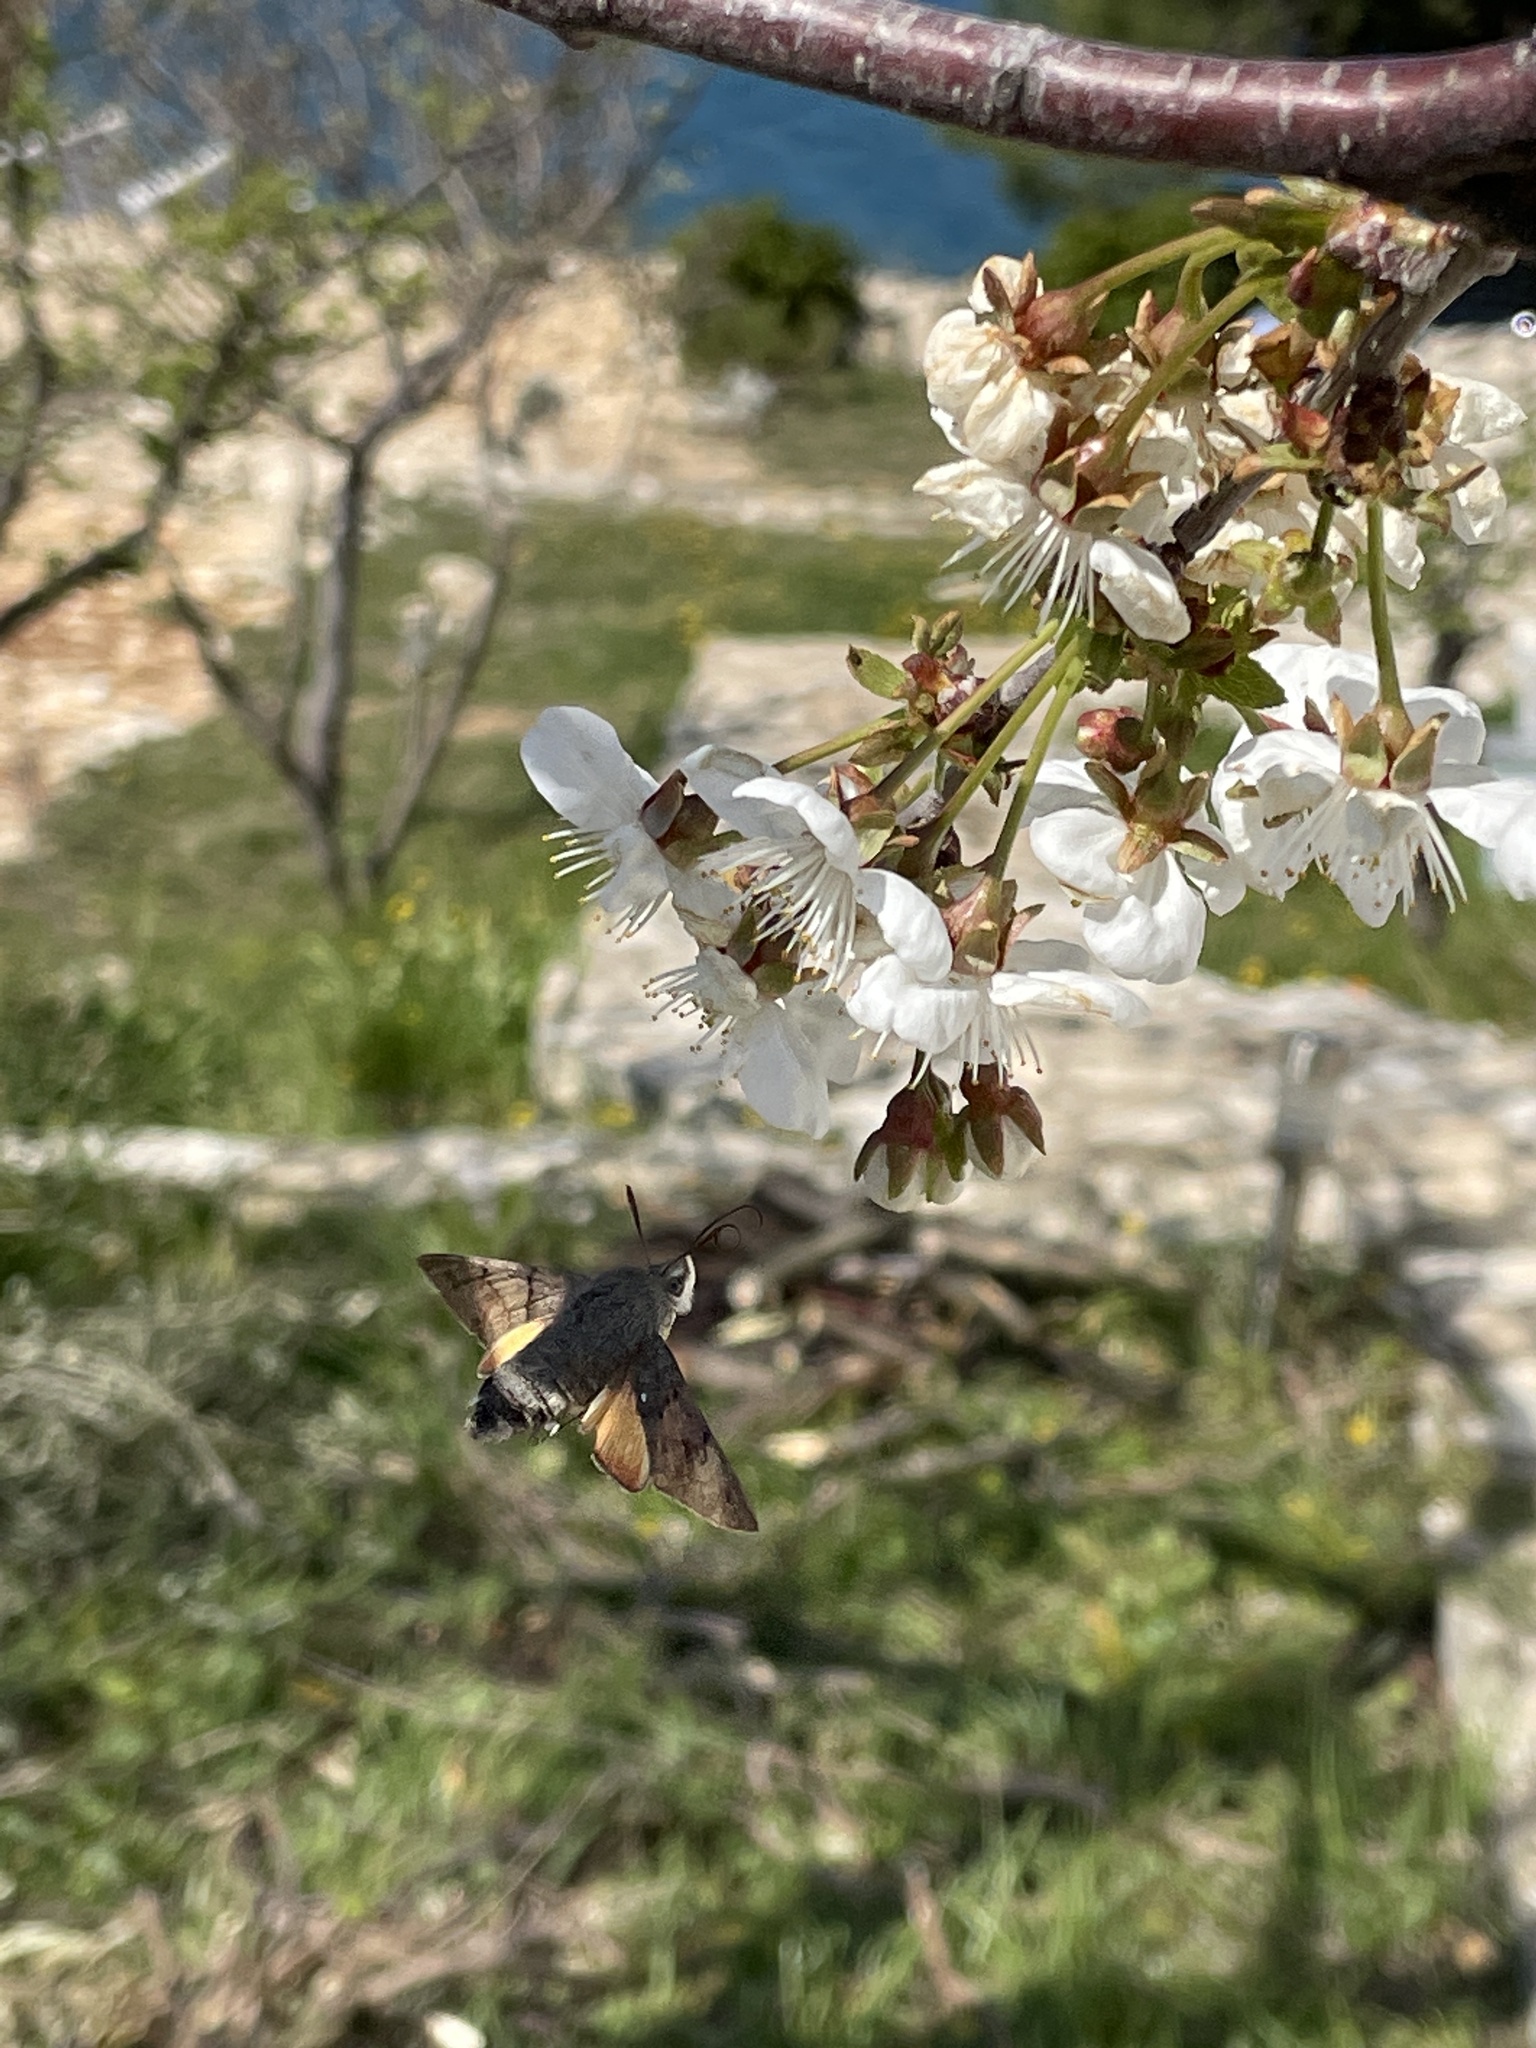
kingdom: Animalia
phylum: Arthropoda
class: Insecta
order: Lepidoptera
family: Sphingidae
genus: Macroglossum
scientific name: Macroglossum stellatarum
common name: Humming-bird hawk-moth
